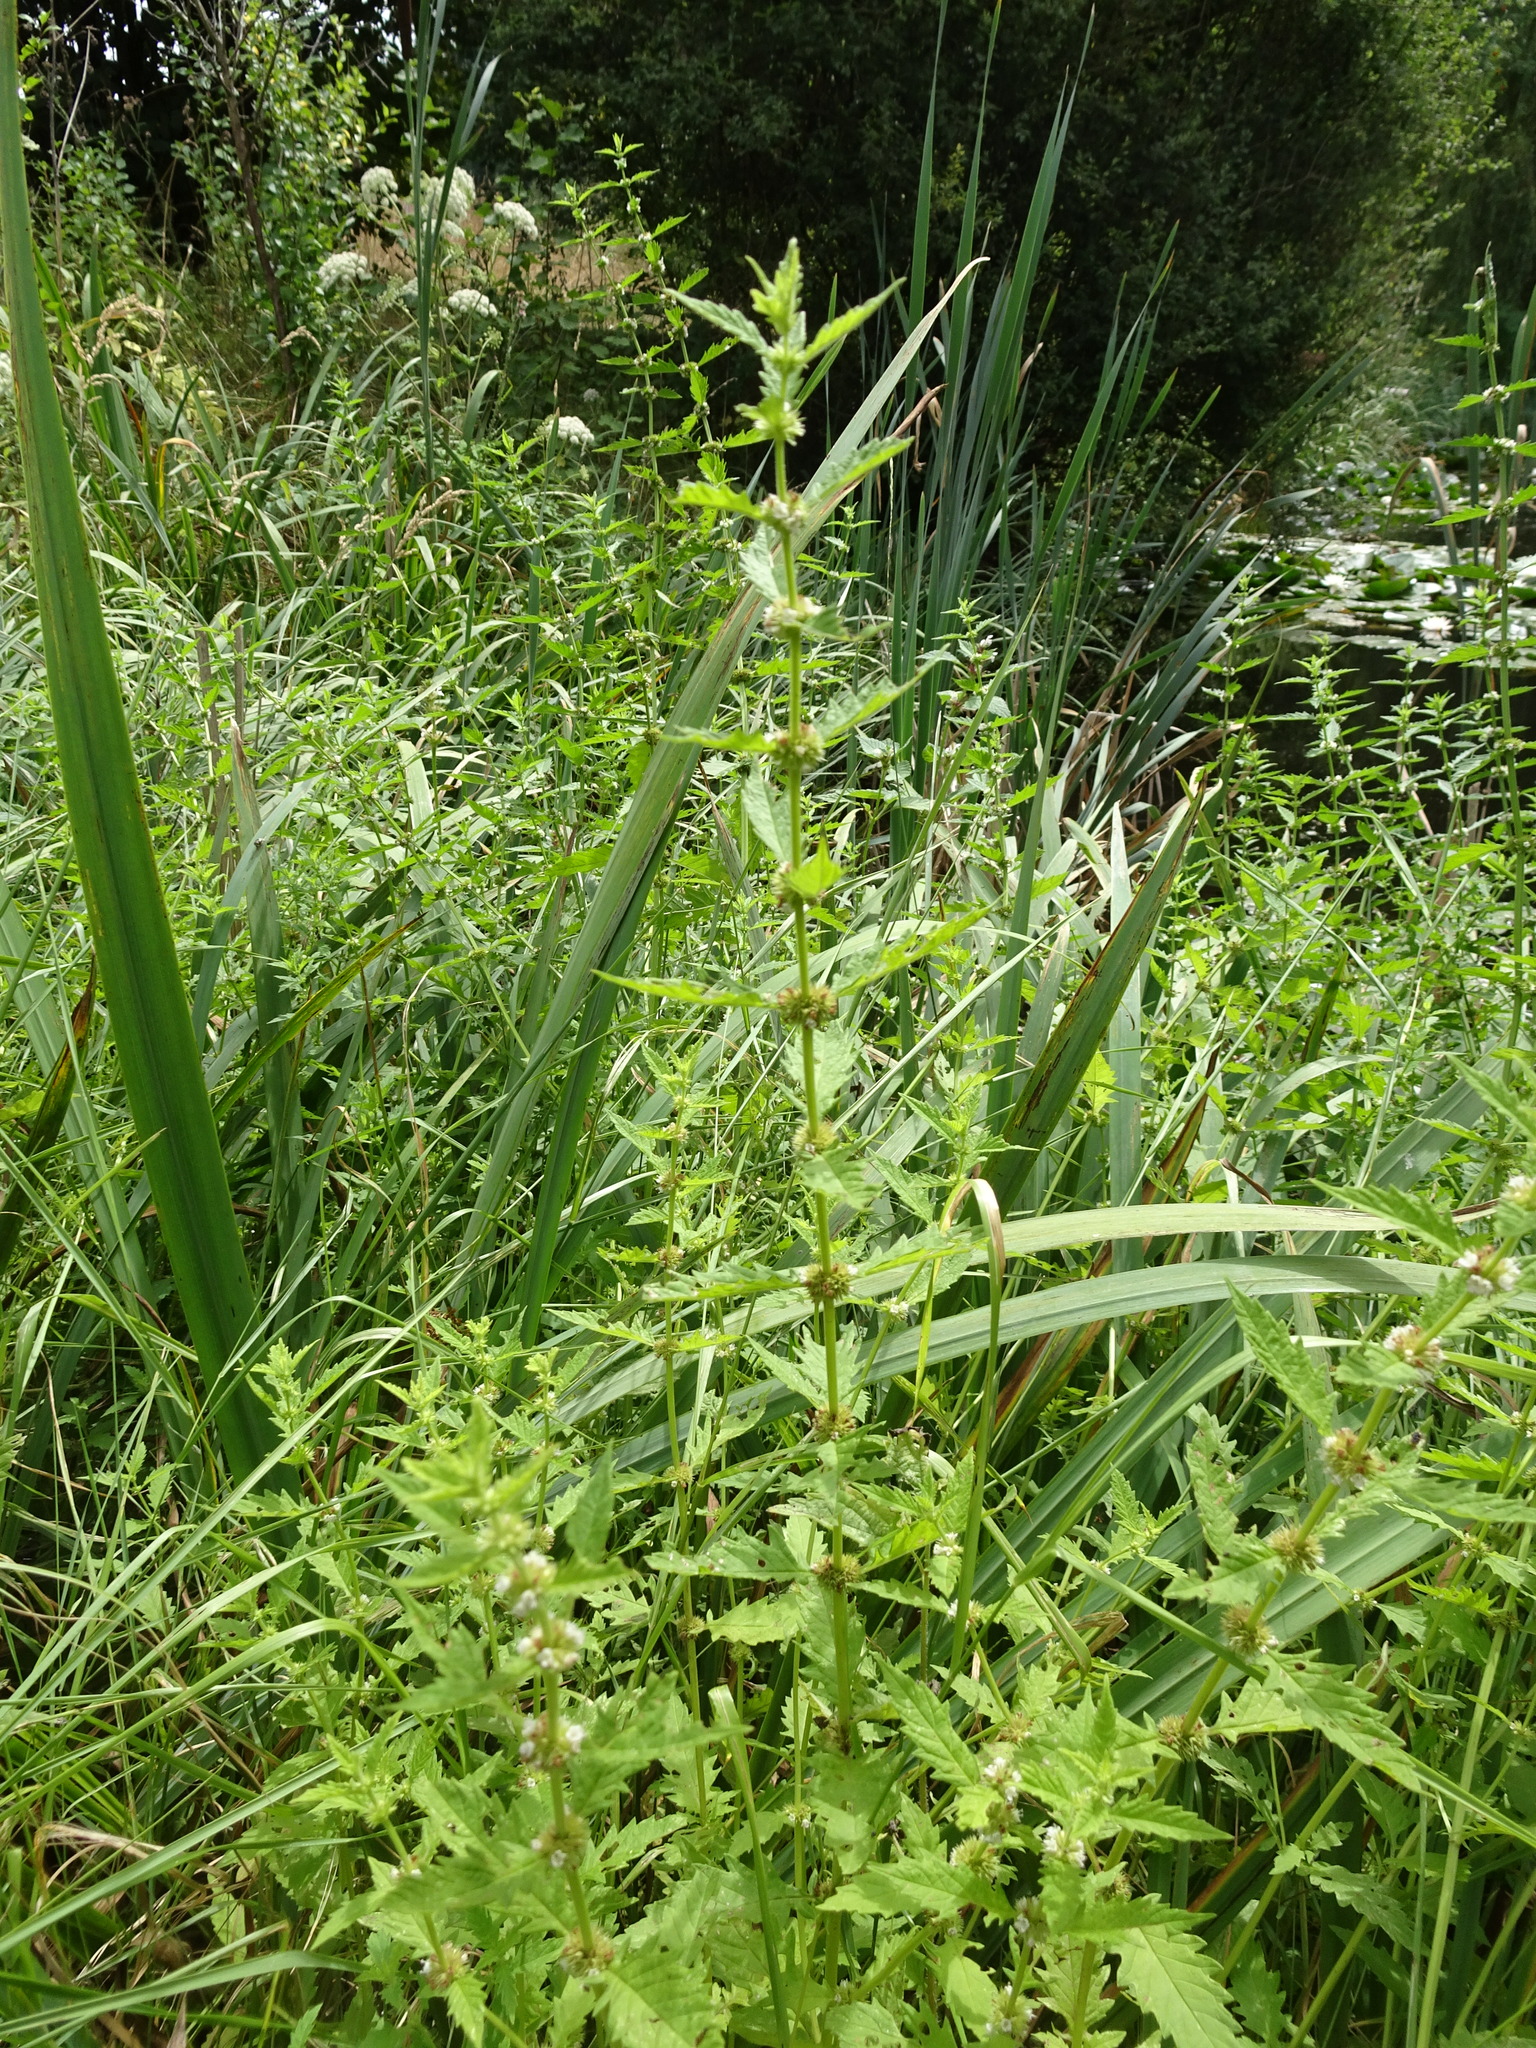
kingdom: Plantae
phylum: Tracheophyta
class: Magnoliopsida
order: Lamiales
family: Lamiaceae
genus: Lycopus
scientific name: Lycopus europaeus
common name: European bugleweed
